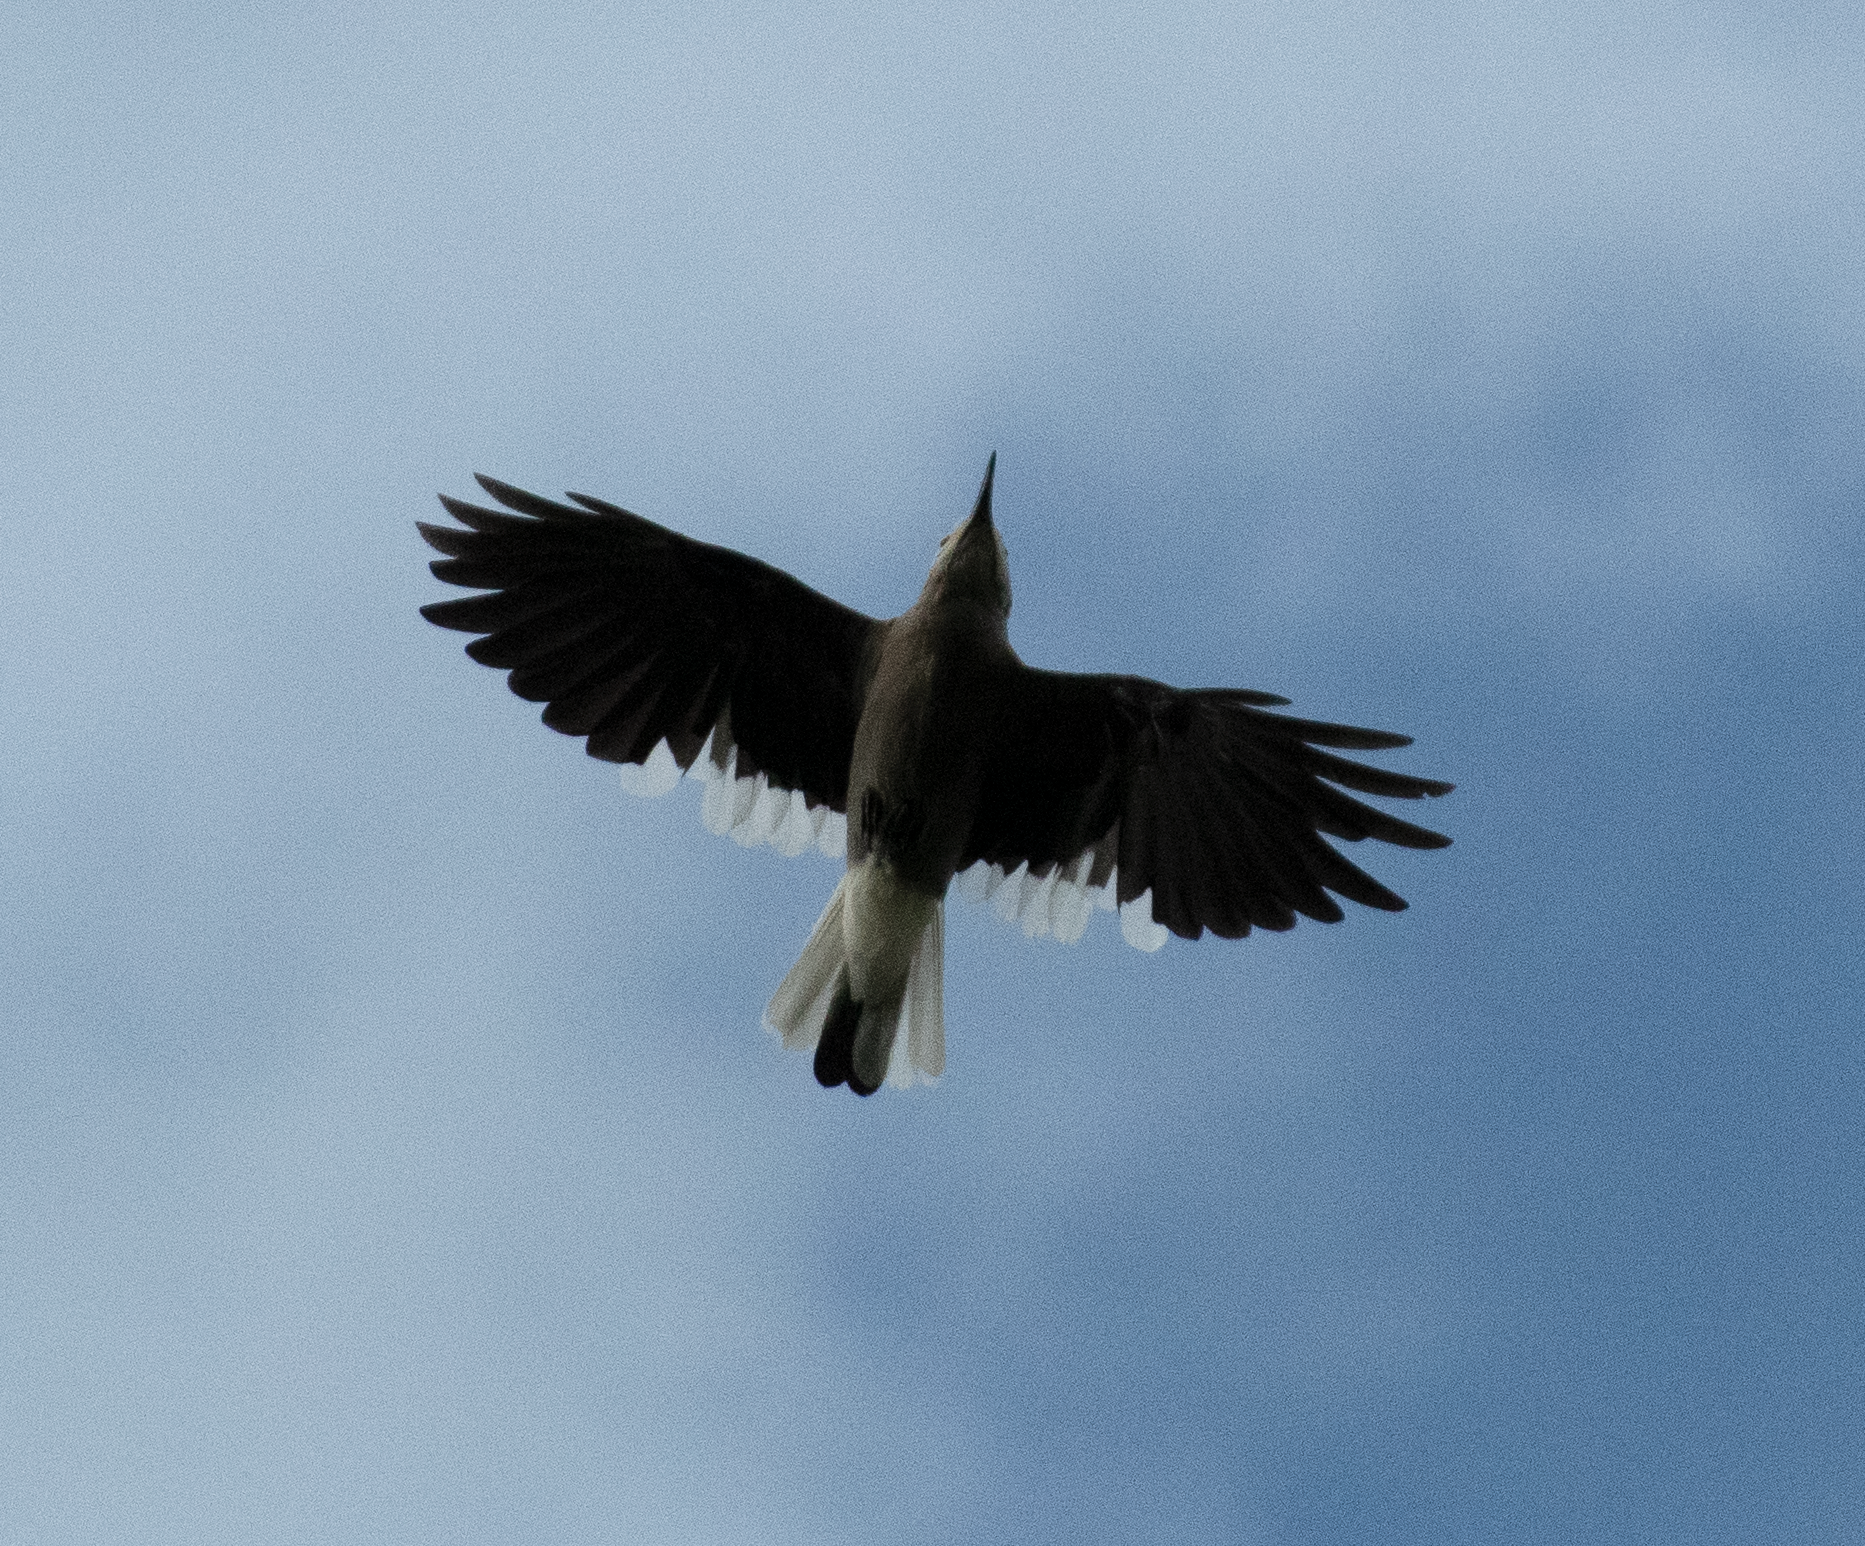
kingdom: Animalia
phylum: Chordata
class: Aves
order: Passeriformes
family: Corvidae
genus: Nucifraga
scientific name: Nucifraga columbiana
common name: Clark's nutcracker
